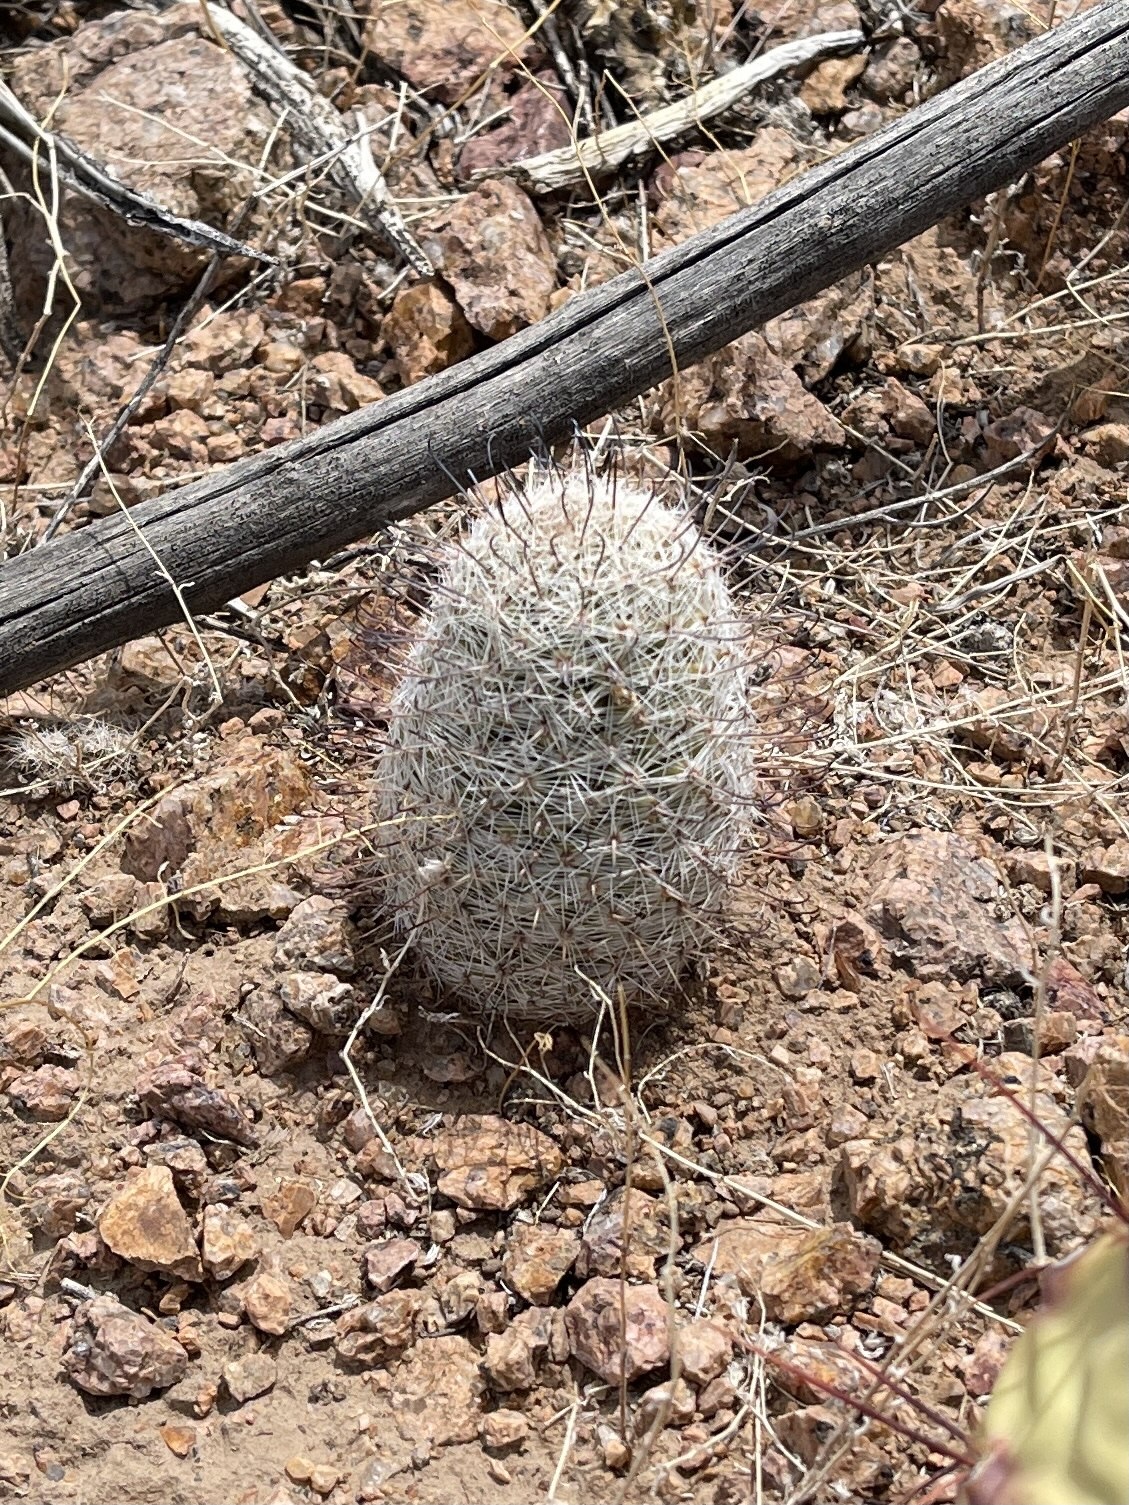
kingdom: Plantae
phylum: Tracheophyta
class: Magnoliopsida
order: Caryophyllales
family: Cactaceae
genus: Cochemiea
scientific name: Cochemiea grahamii
